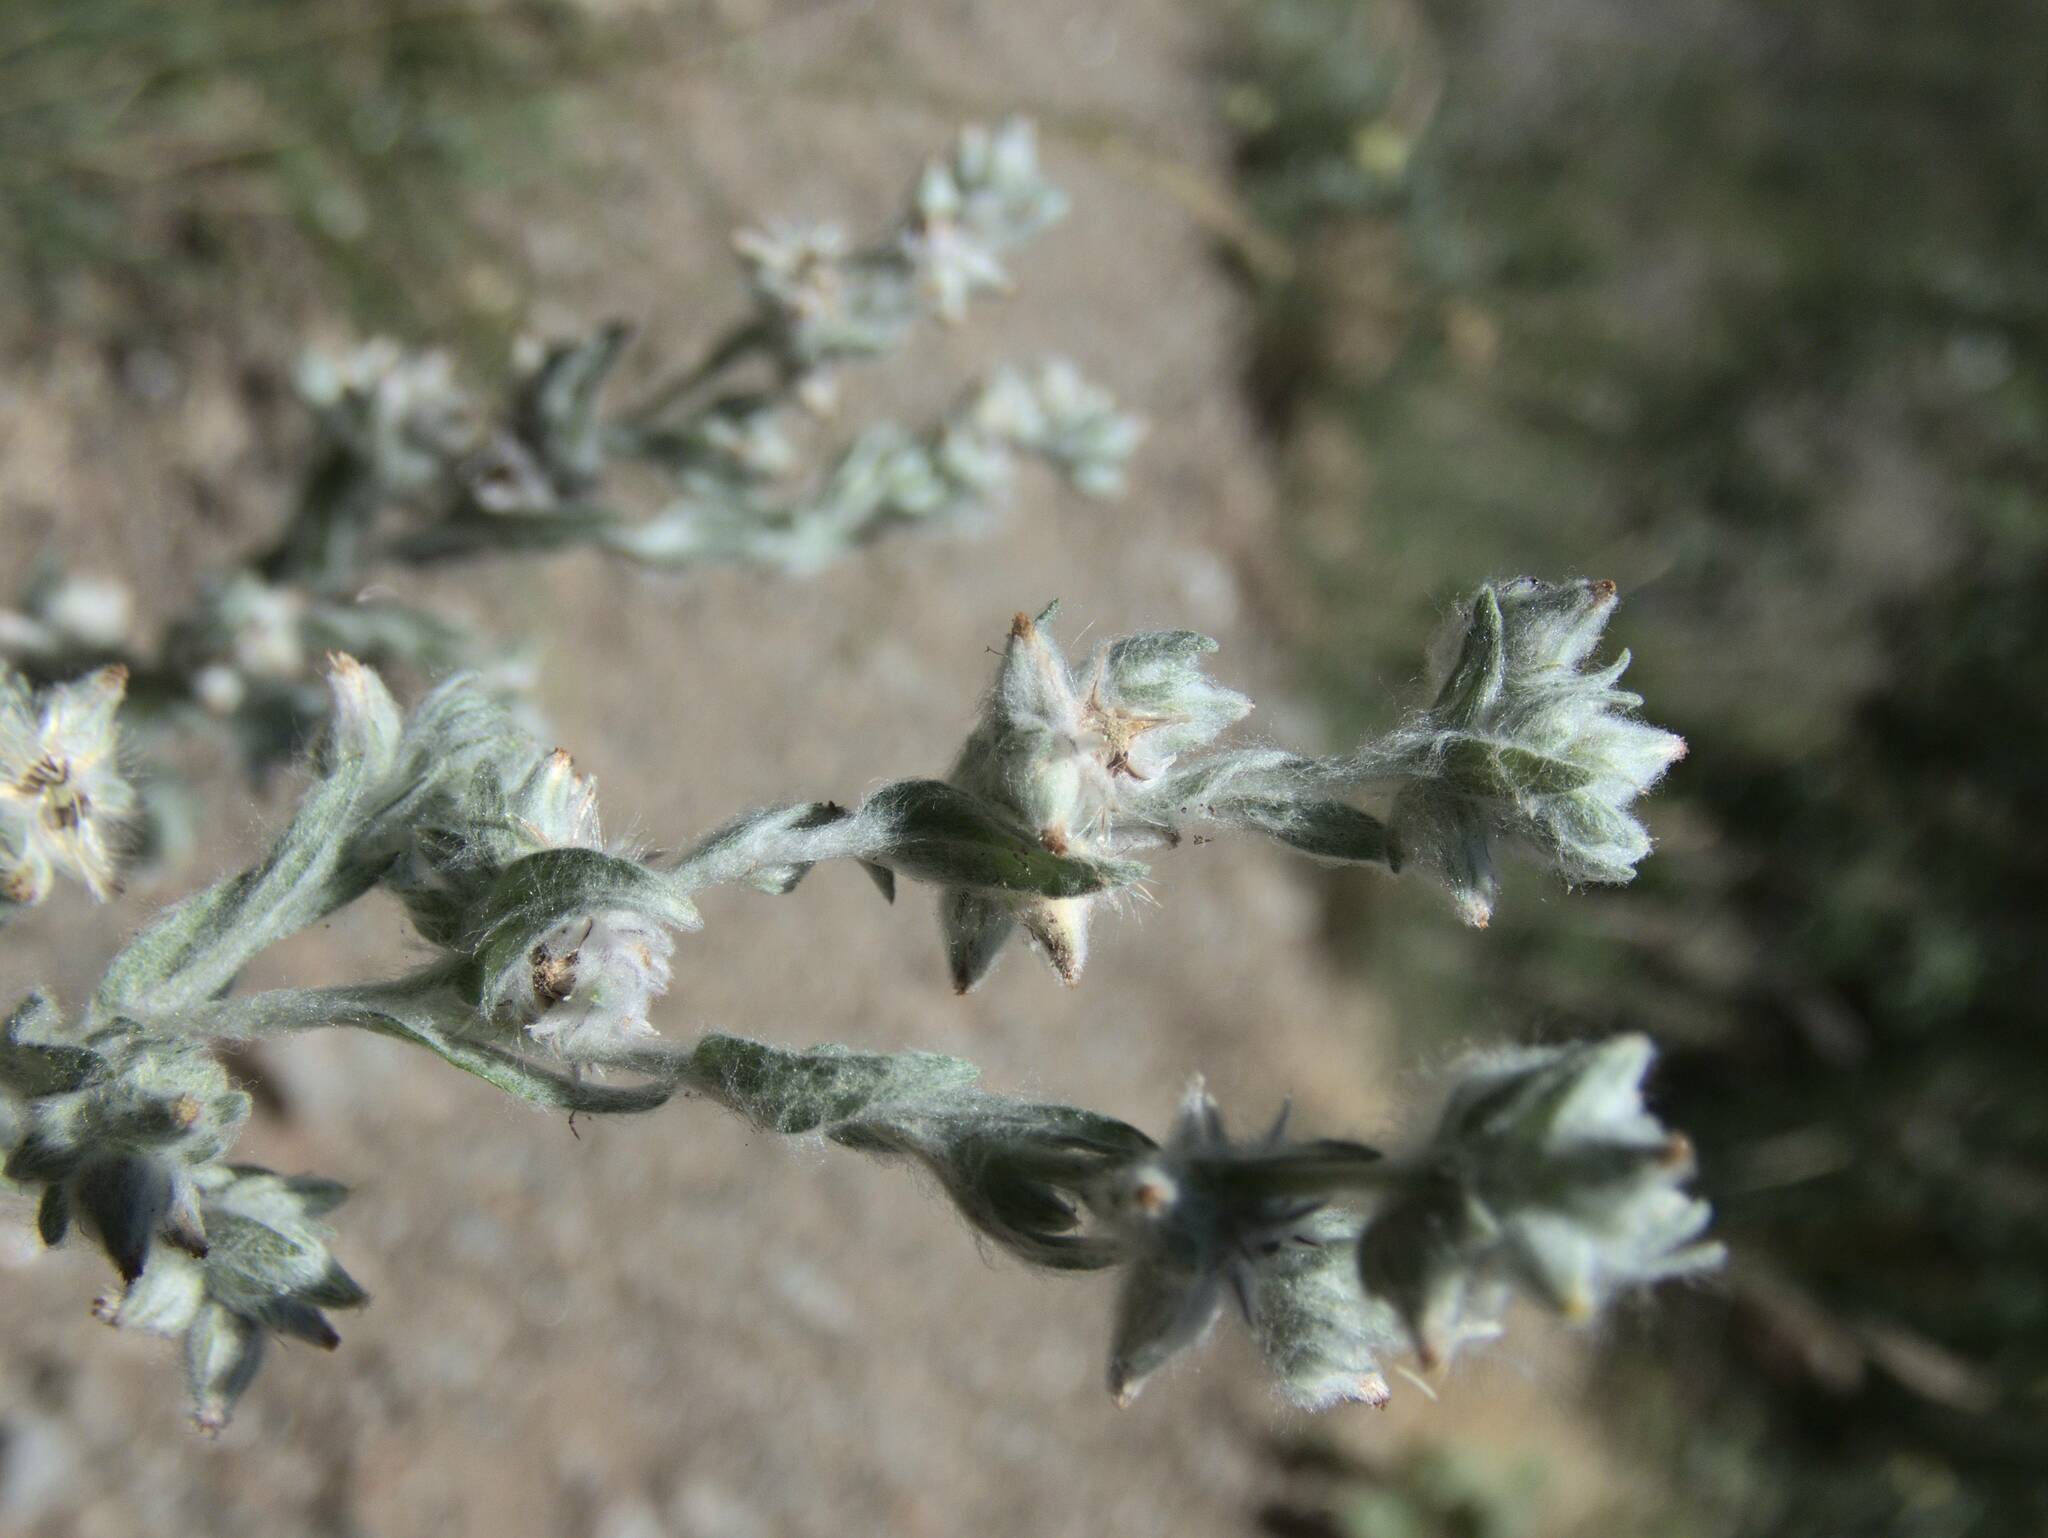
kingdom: Plantae
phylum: Tracheophyta
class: Magnoliopsida
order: Asterales
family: Asteraceae
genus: Filago
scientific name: Filago arvensis
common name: Field cudweed
